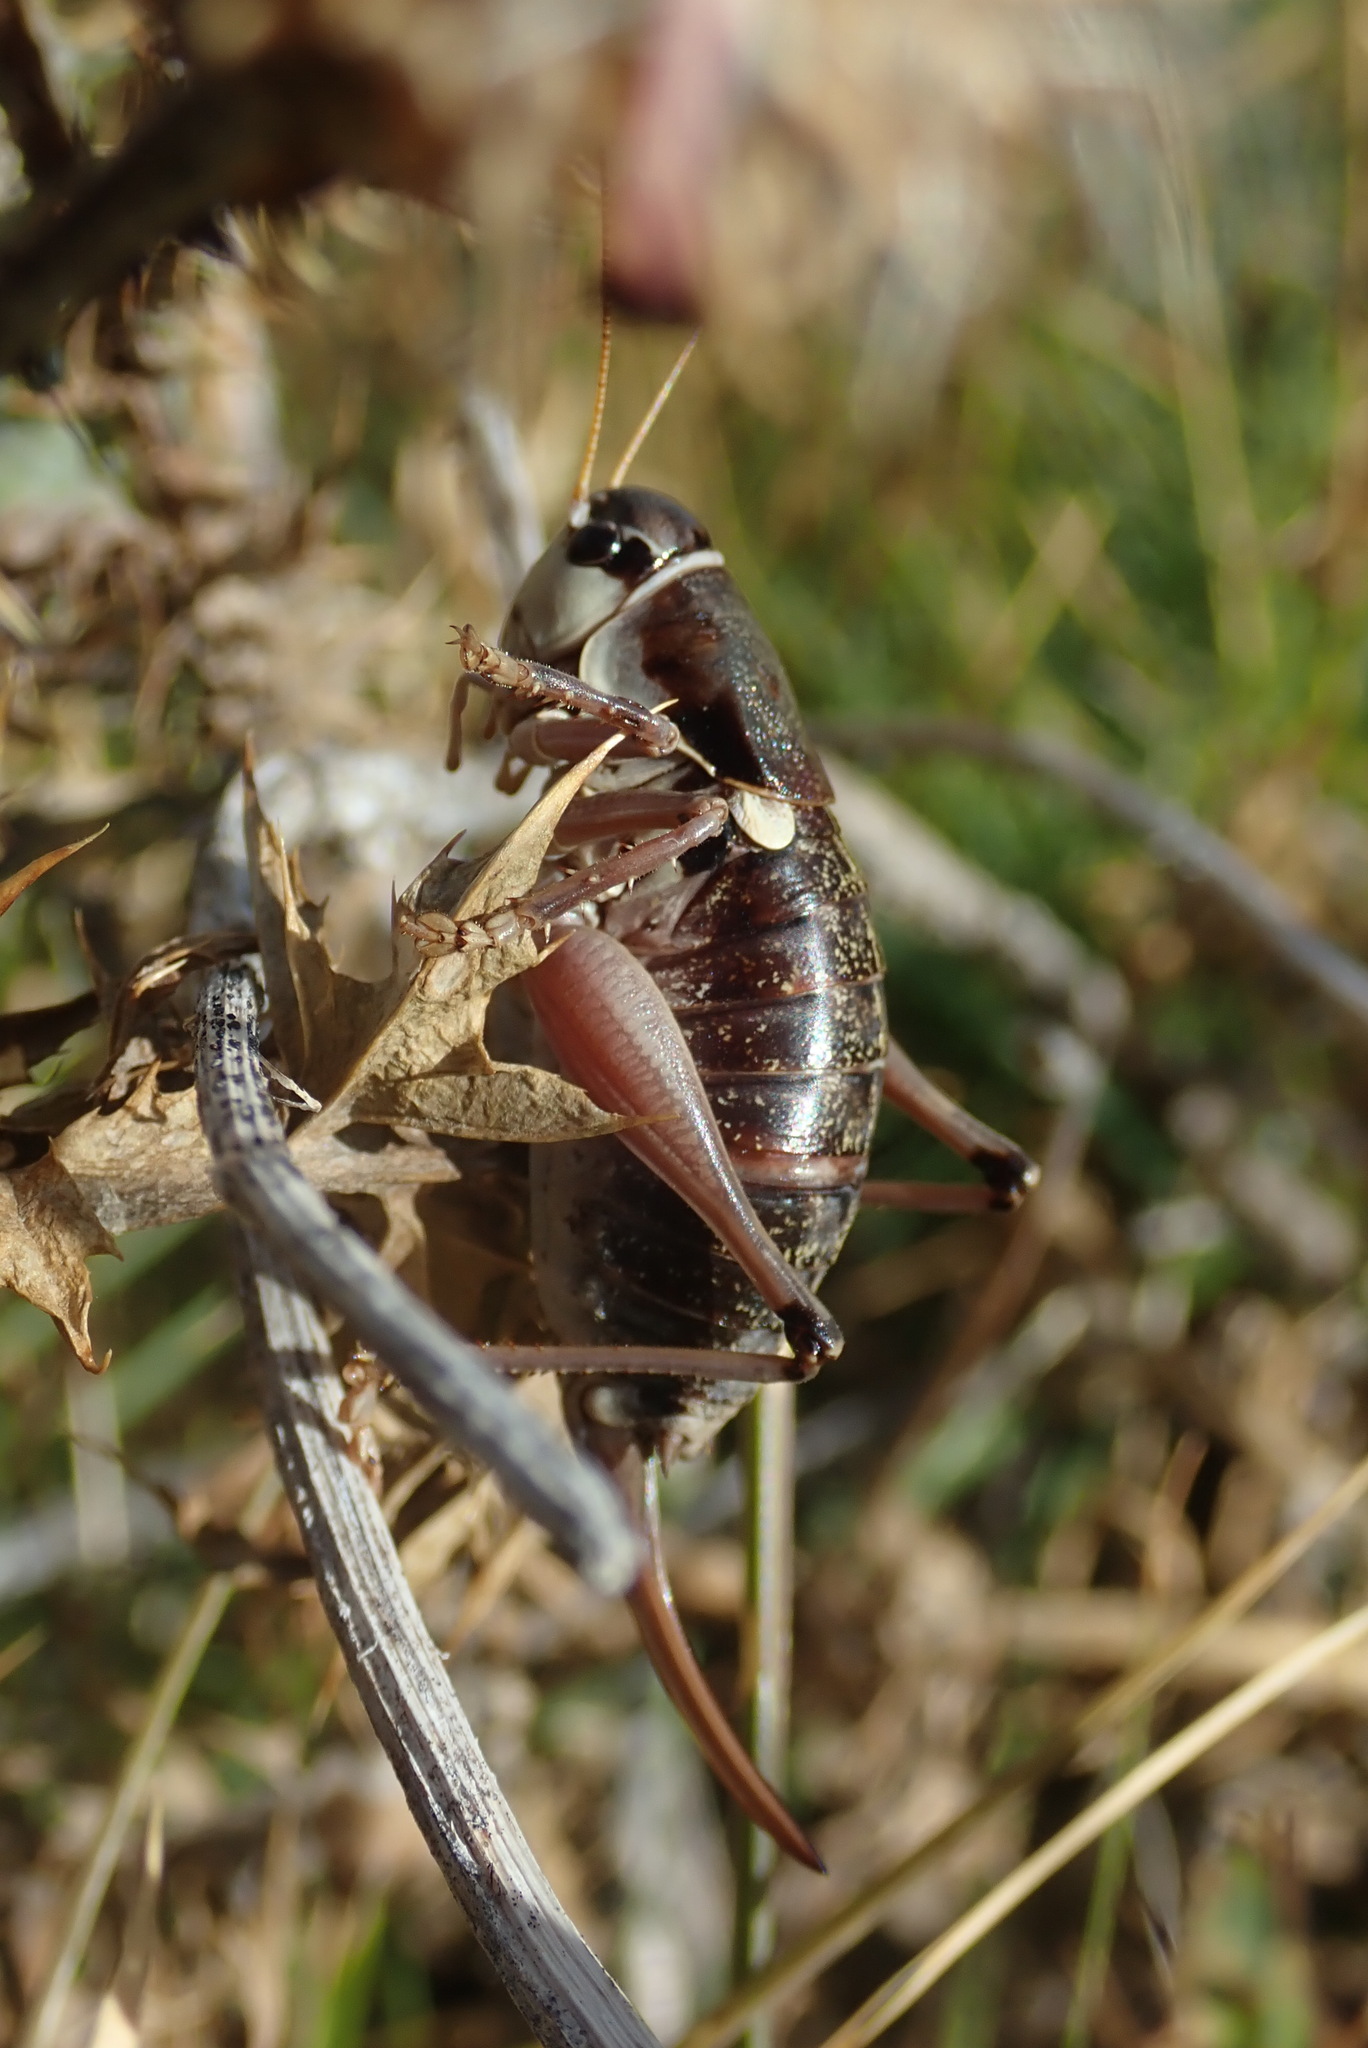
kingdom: Animalia
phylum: Arthropoda
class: Insecta
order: Orthoptera
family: Tettigoniidae
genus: Anonconotus
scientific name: Anonconotus ghilianii
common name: Ghiliani's alpine bush-cricket
